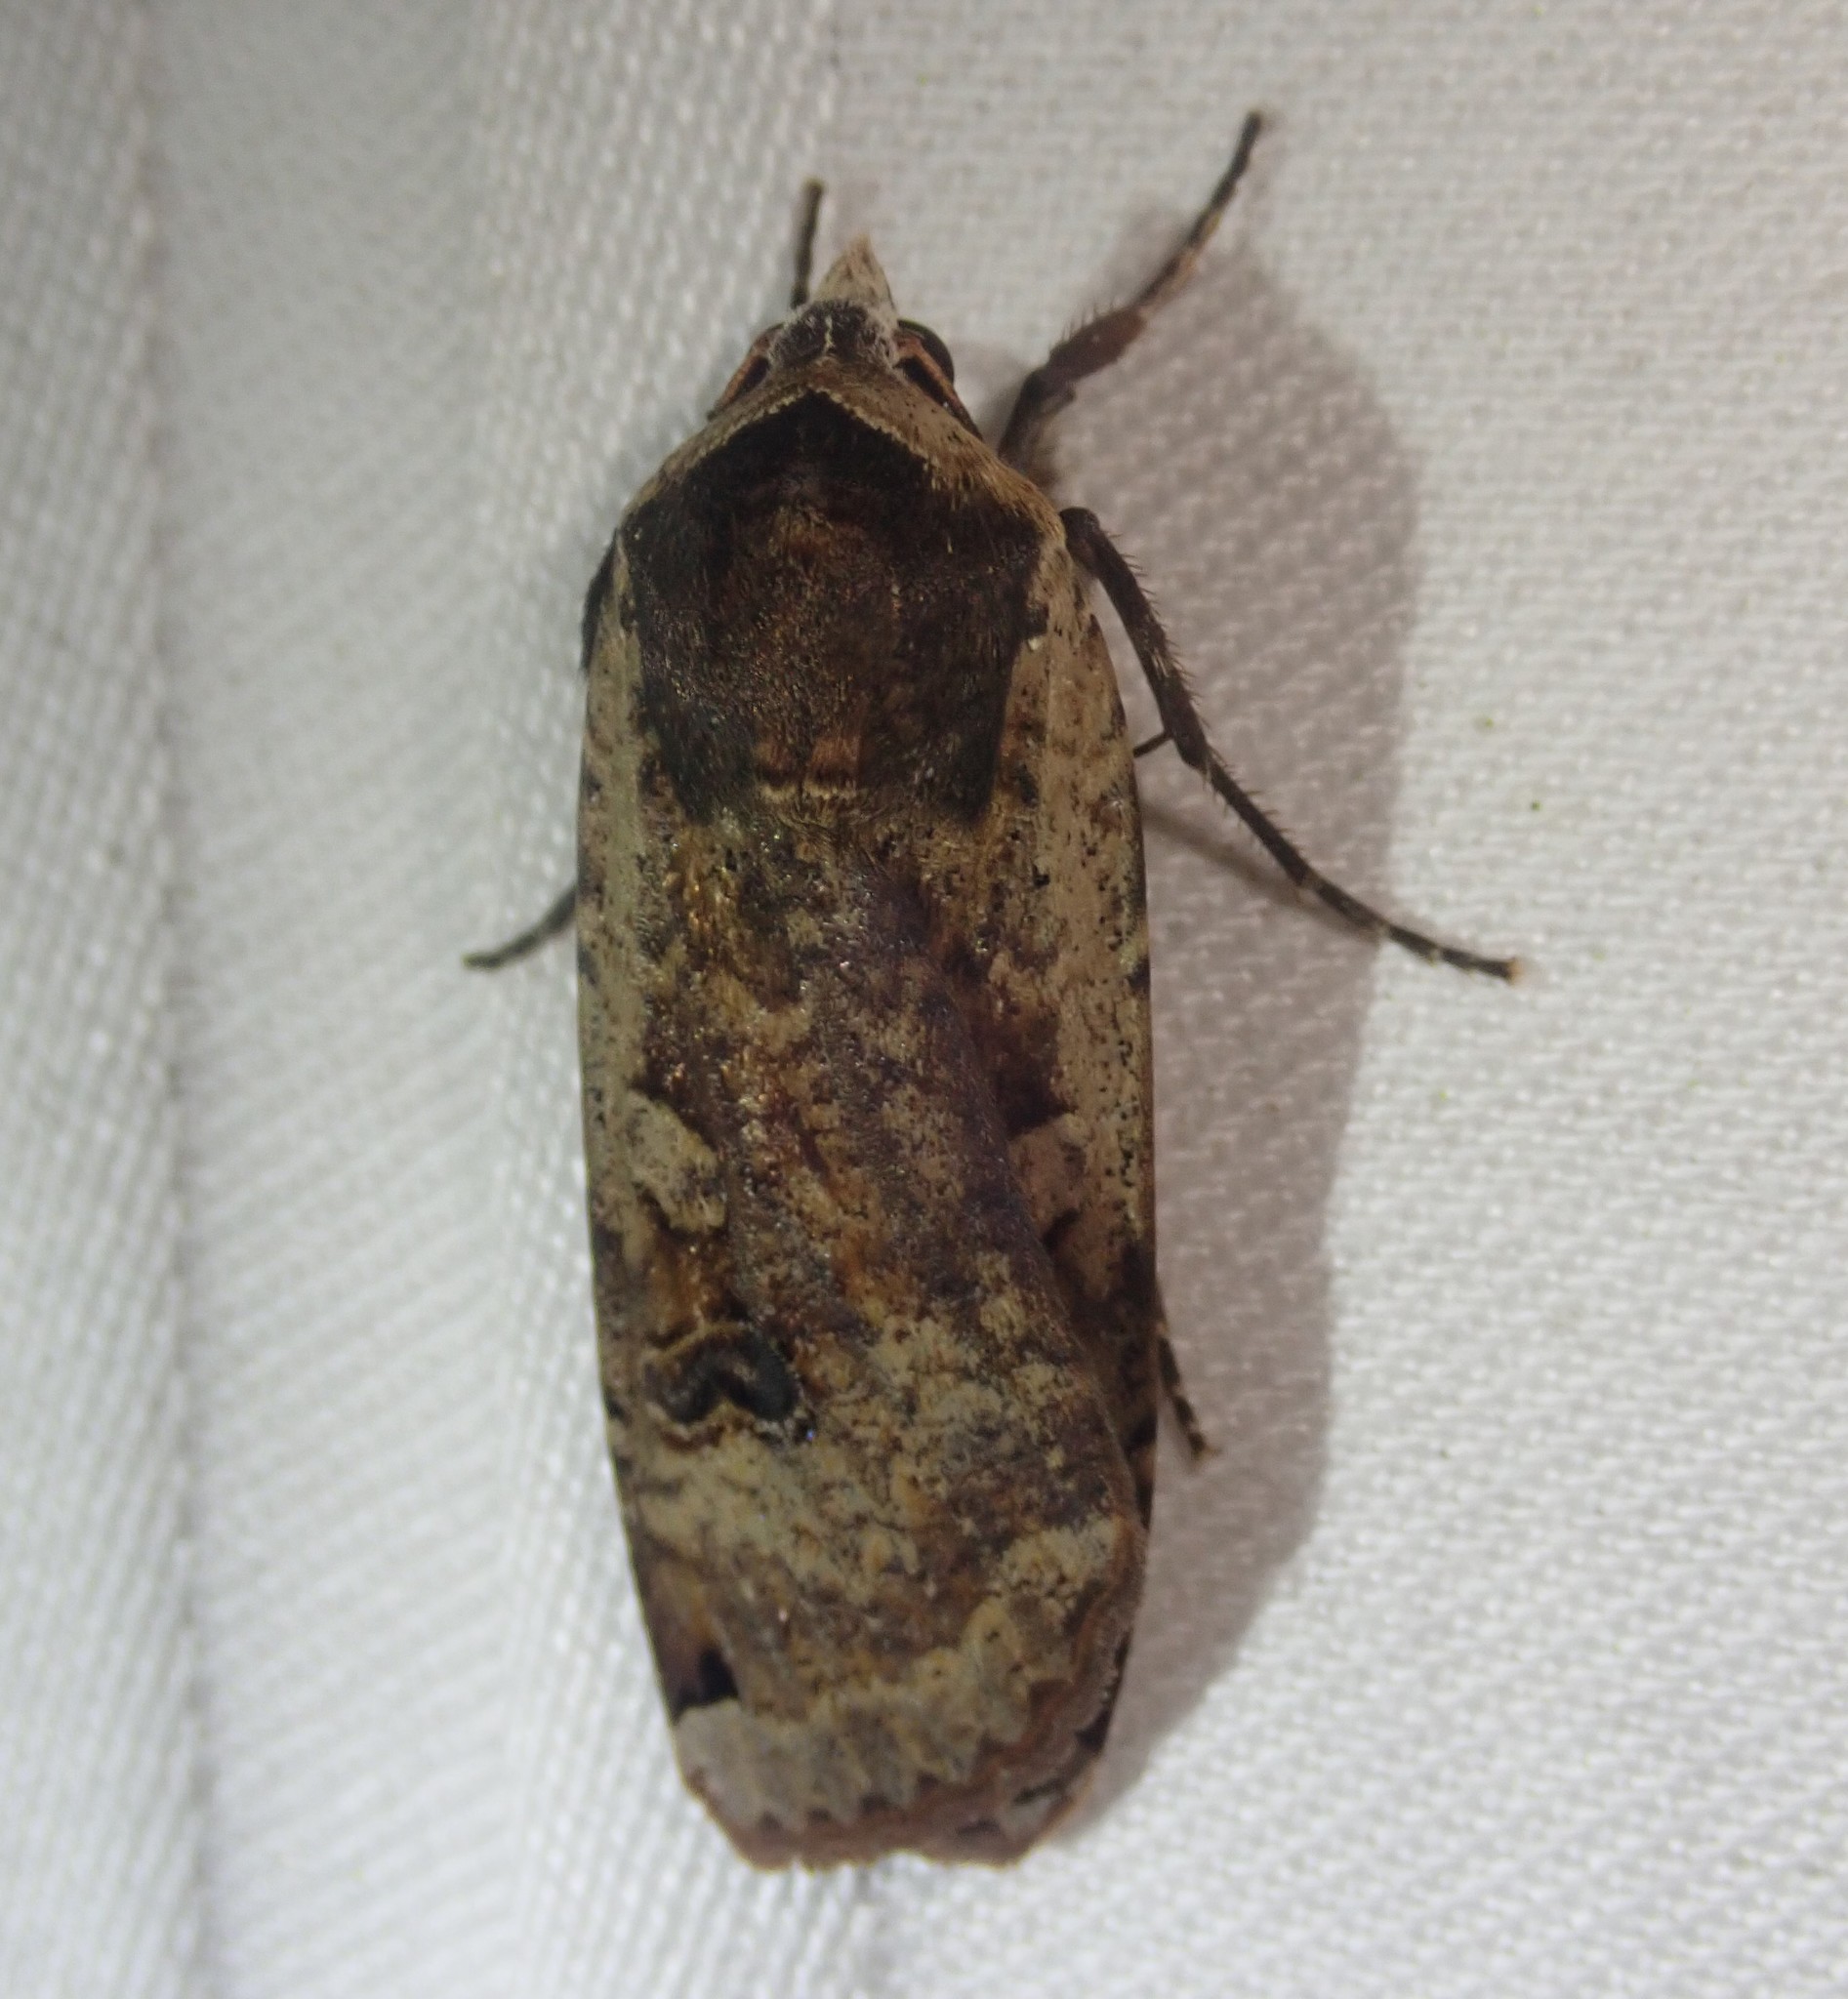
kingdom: Animalia
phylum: Arthropoda
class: Insecta
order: Lepidoptera
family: Noctuidae
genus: Noctua
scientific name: Noctua pronuba
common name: Large yellow underwing
